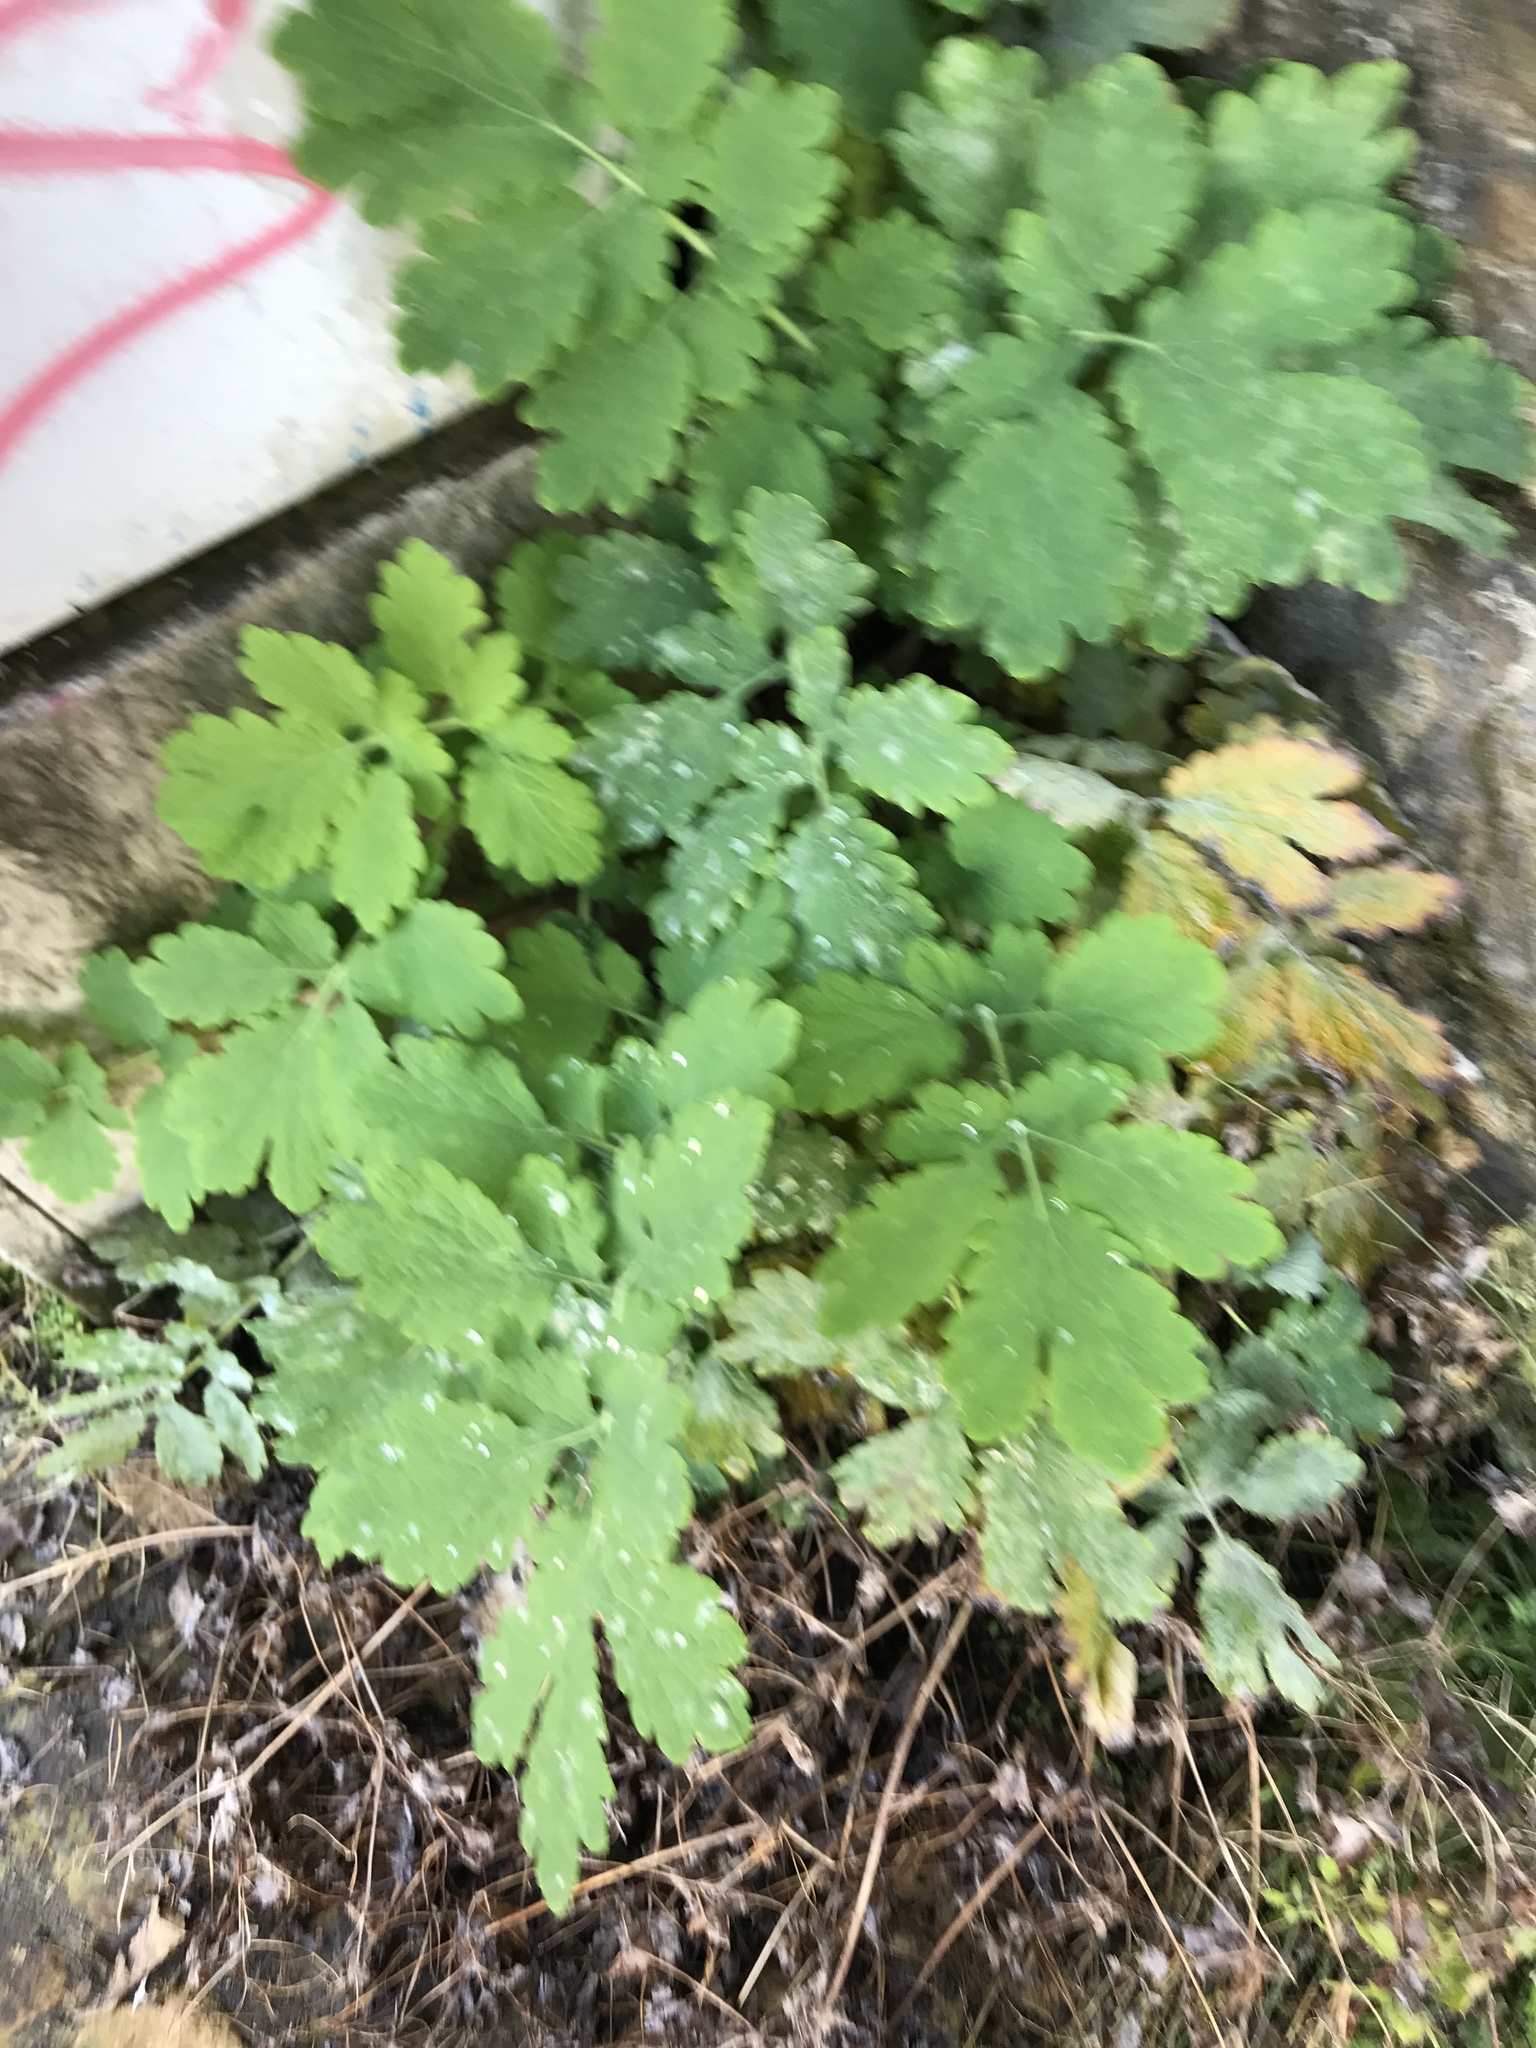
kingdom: Plantae
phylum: Tracheophyta
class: Magnoliopsida
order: Ranunculales
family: Papaveraceae
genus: Chelidonium
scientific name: Chelidonium majus
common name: Greater celandine
